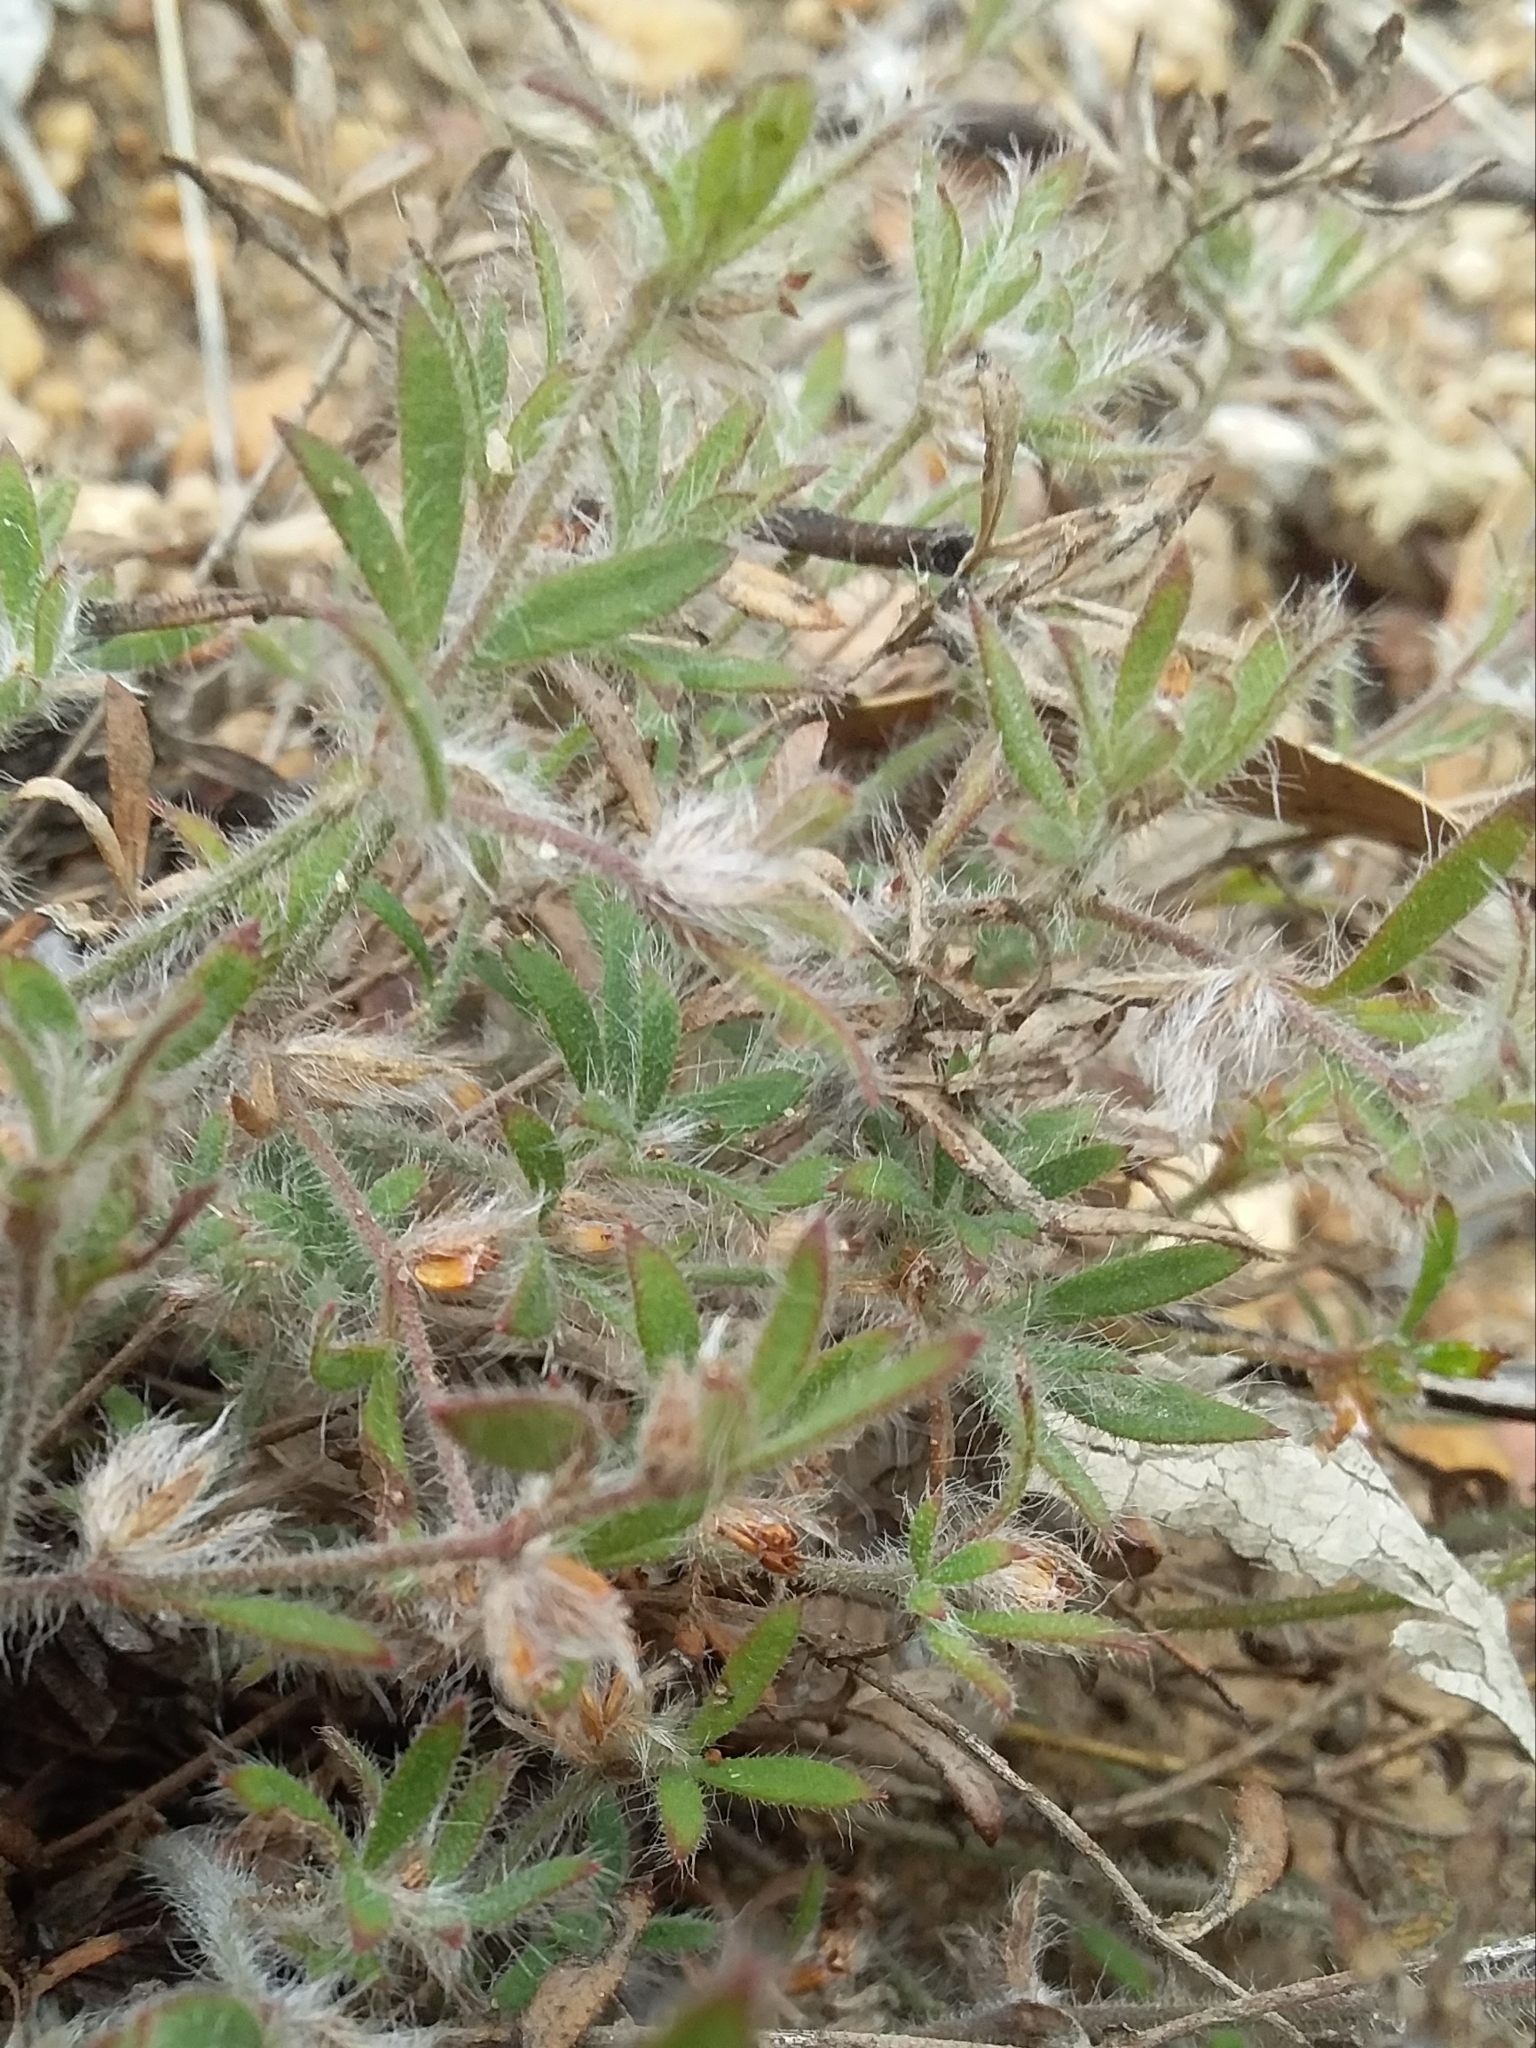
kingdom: Plantae
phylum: Tracheophyta
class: Magnoliopsida
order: Apiales
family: Apiaceae
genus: Xanthosia
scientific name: Xanthosia huegelii
